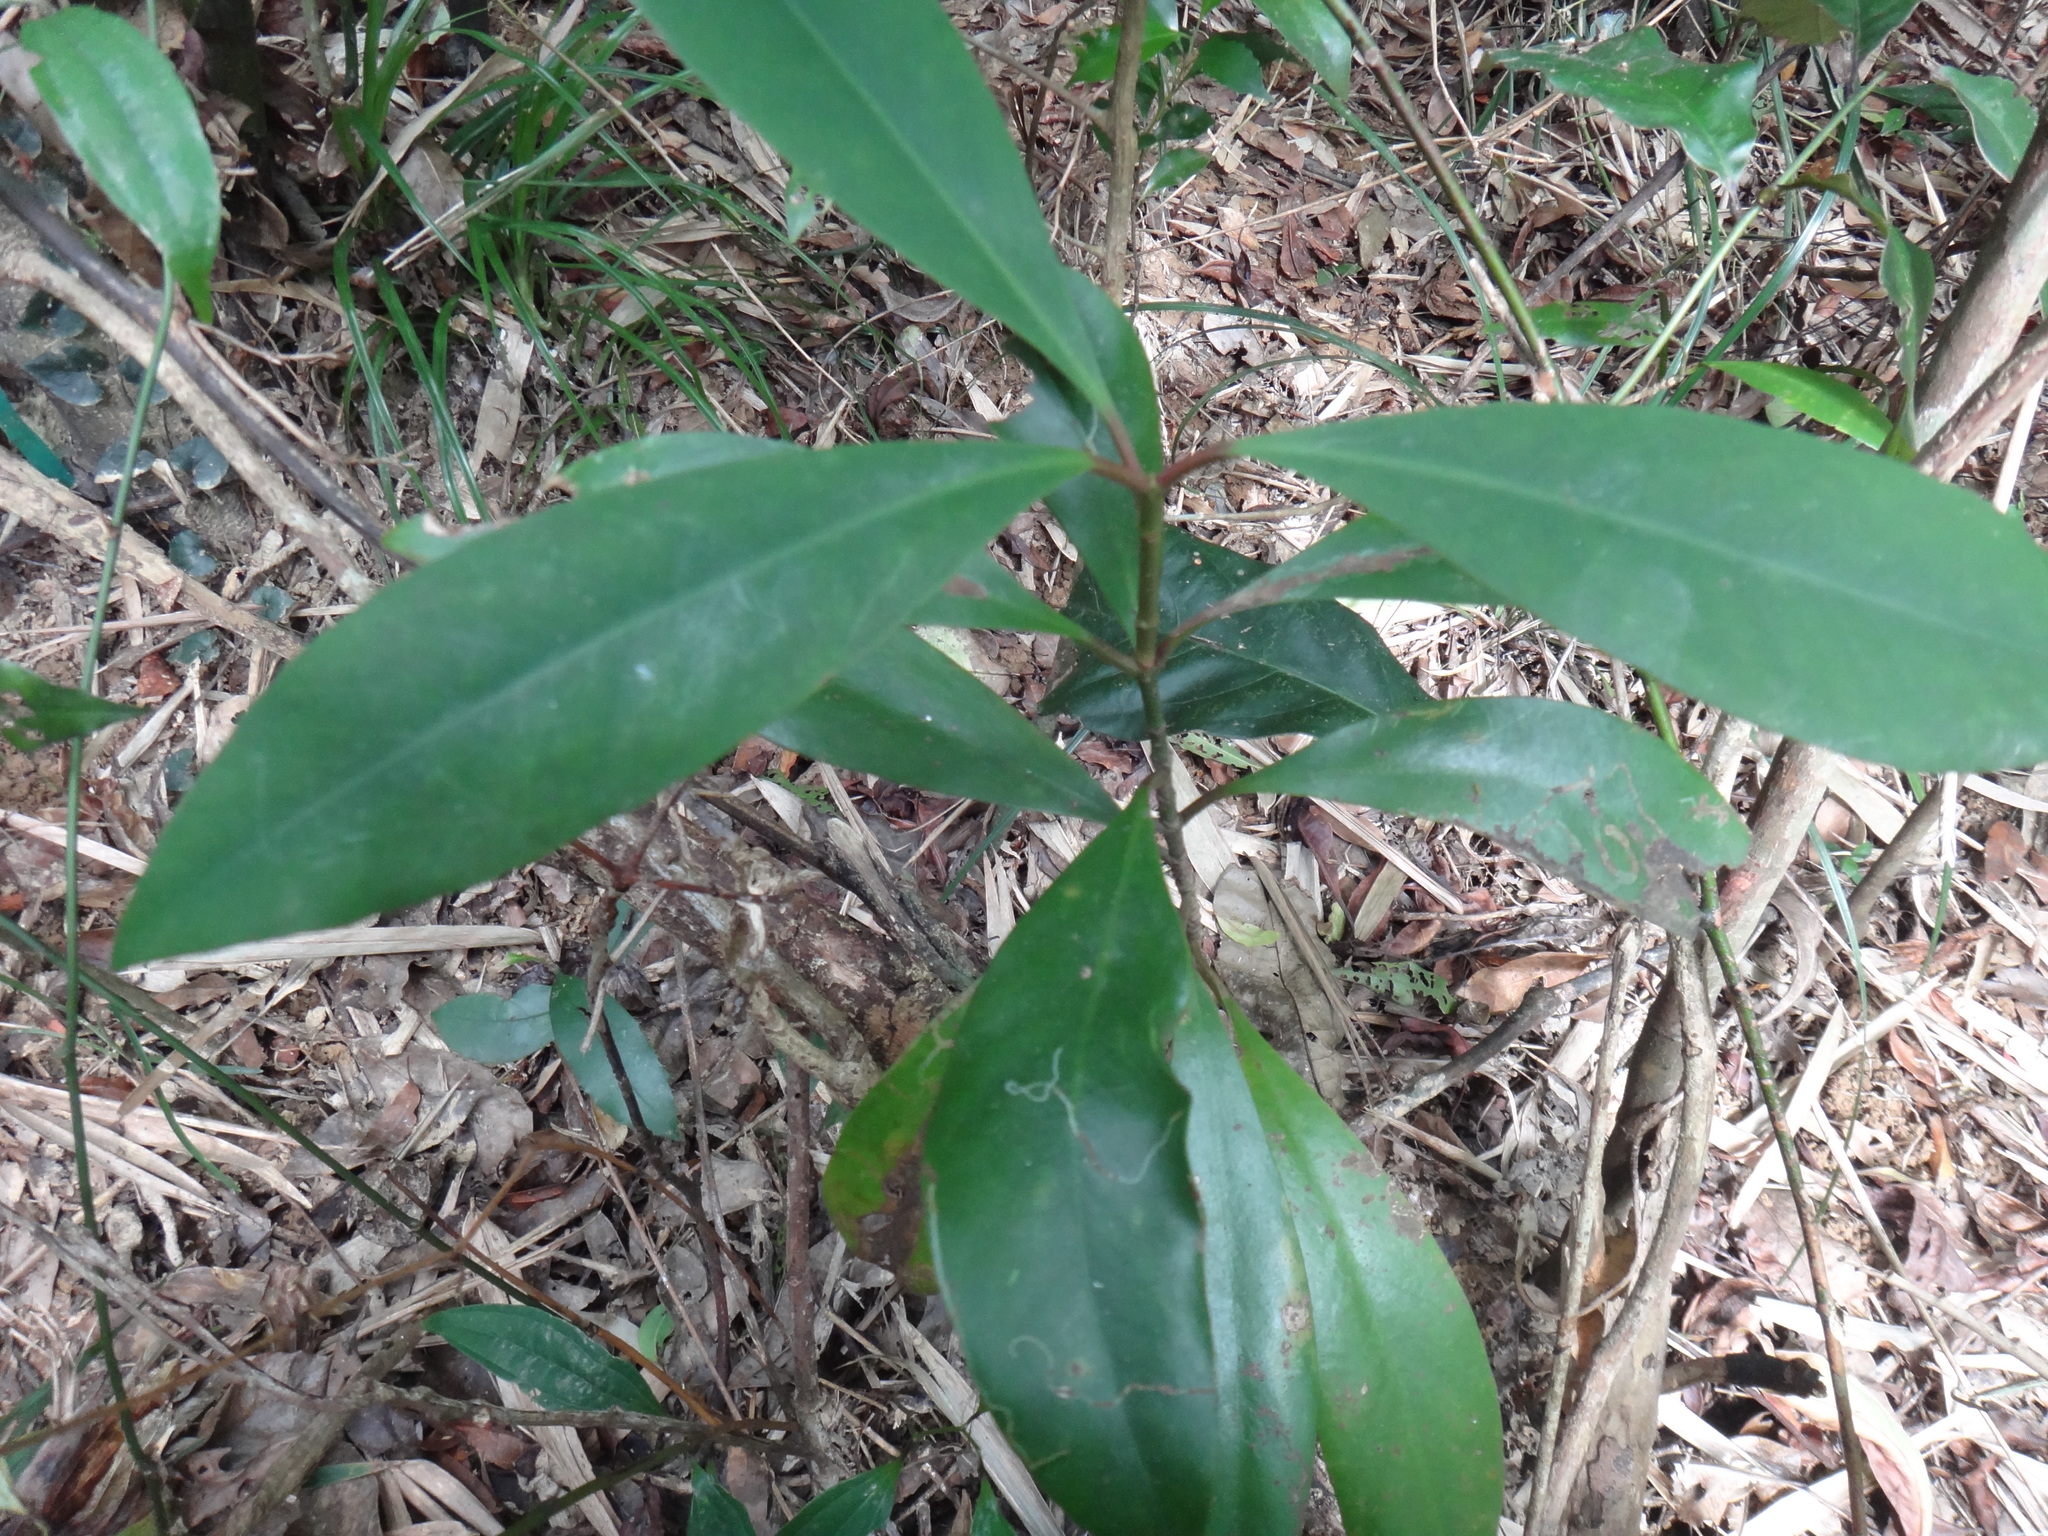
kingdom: Plantae
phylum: Tracheophyta
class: Magnoliopsida
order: Malpighiales
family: Clusiaceae
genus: Garcinia
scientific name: Garcinia multiflora
